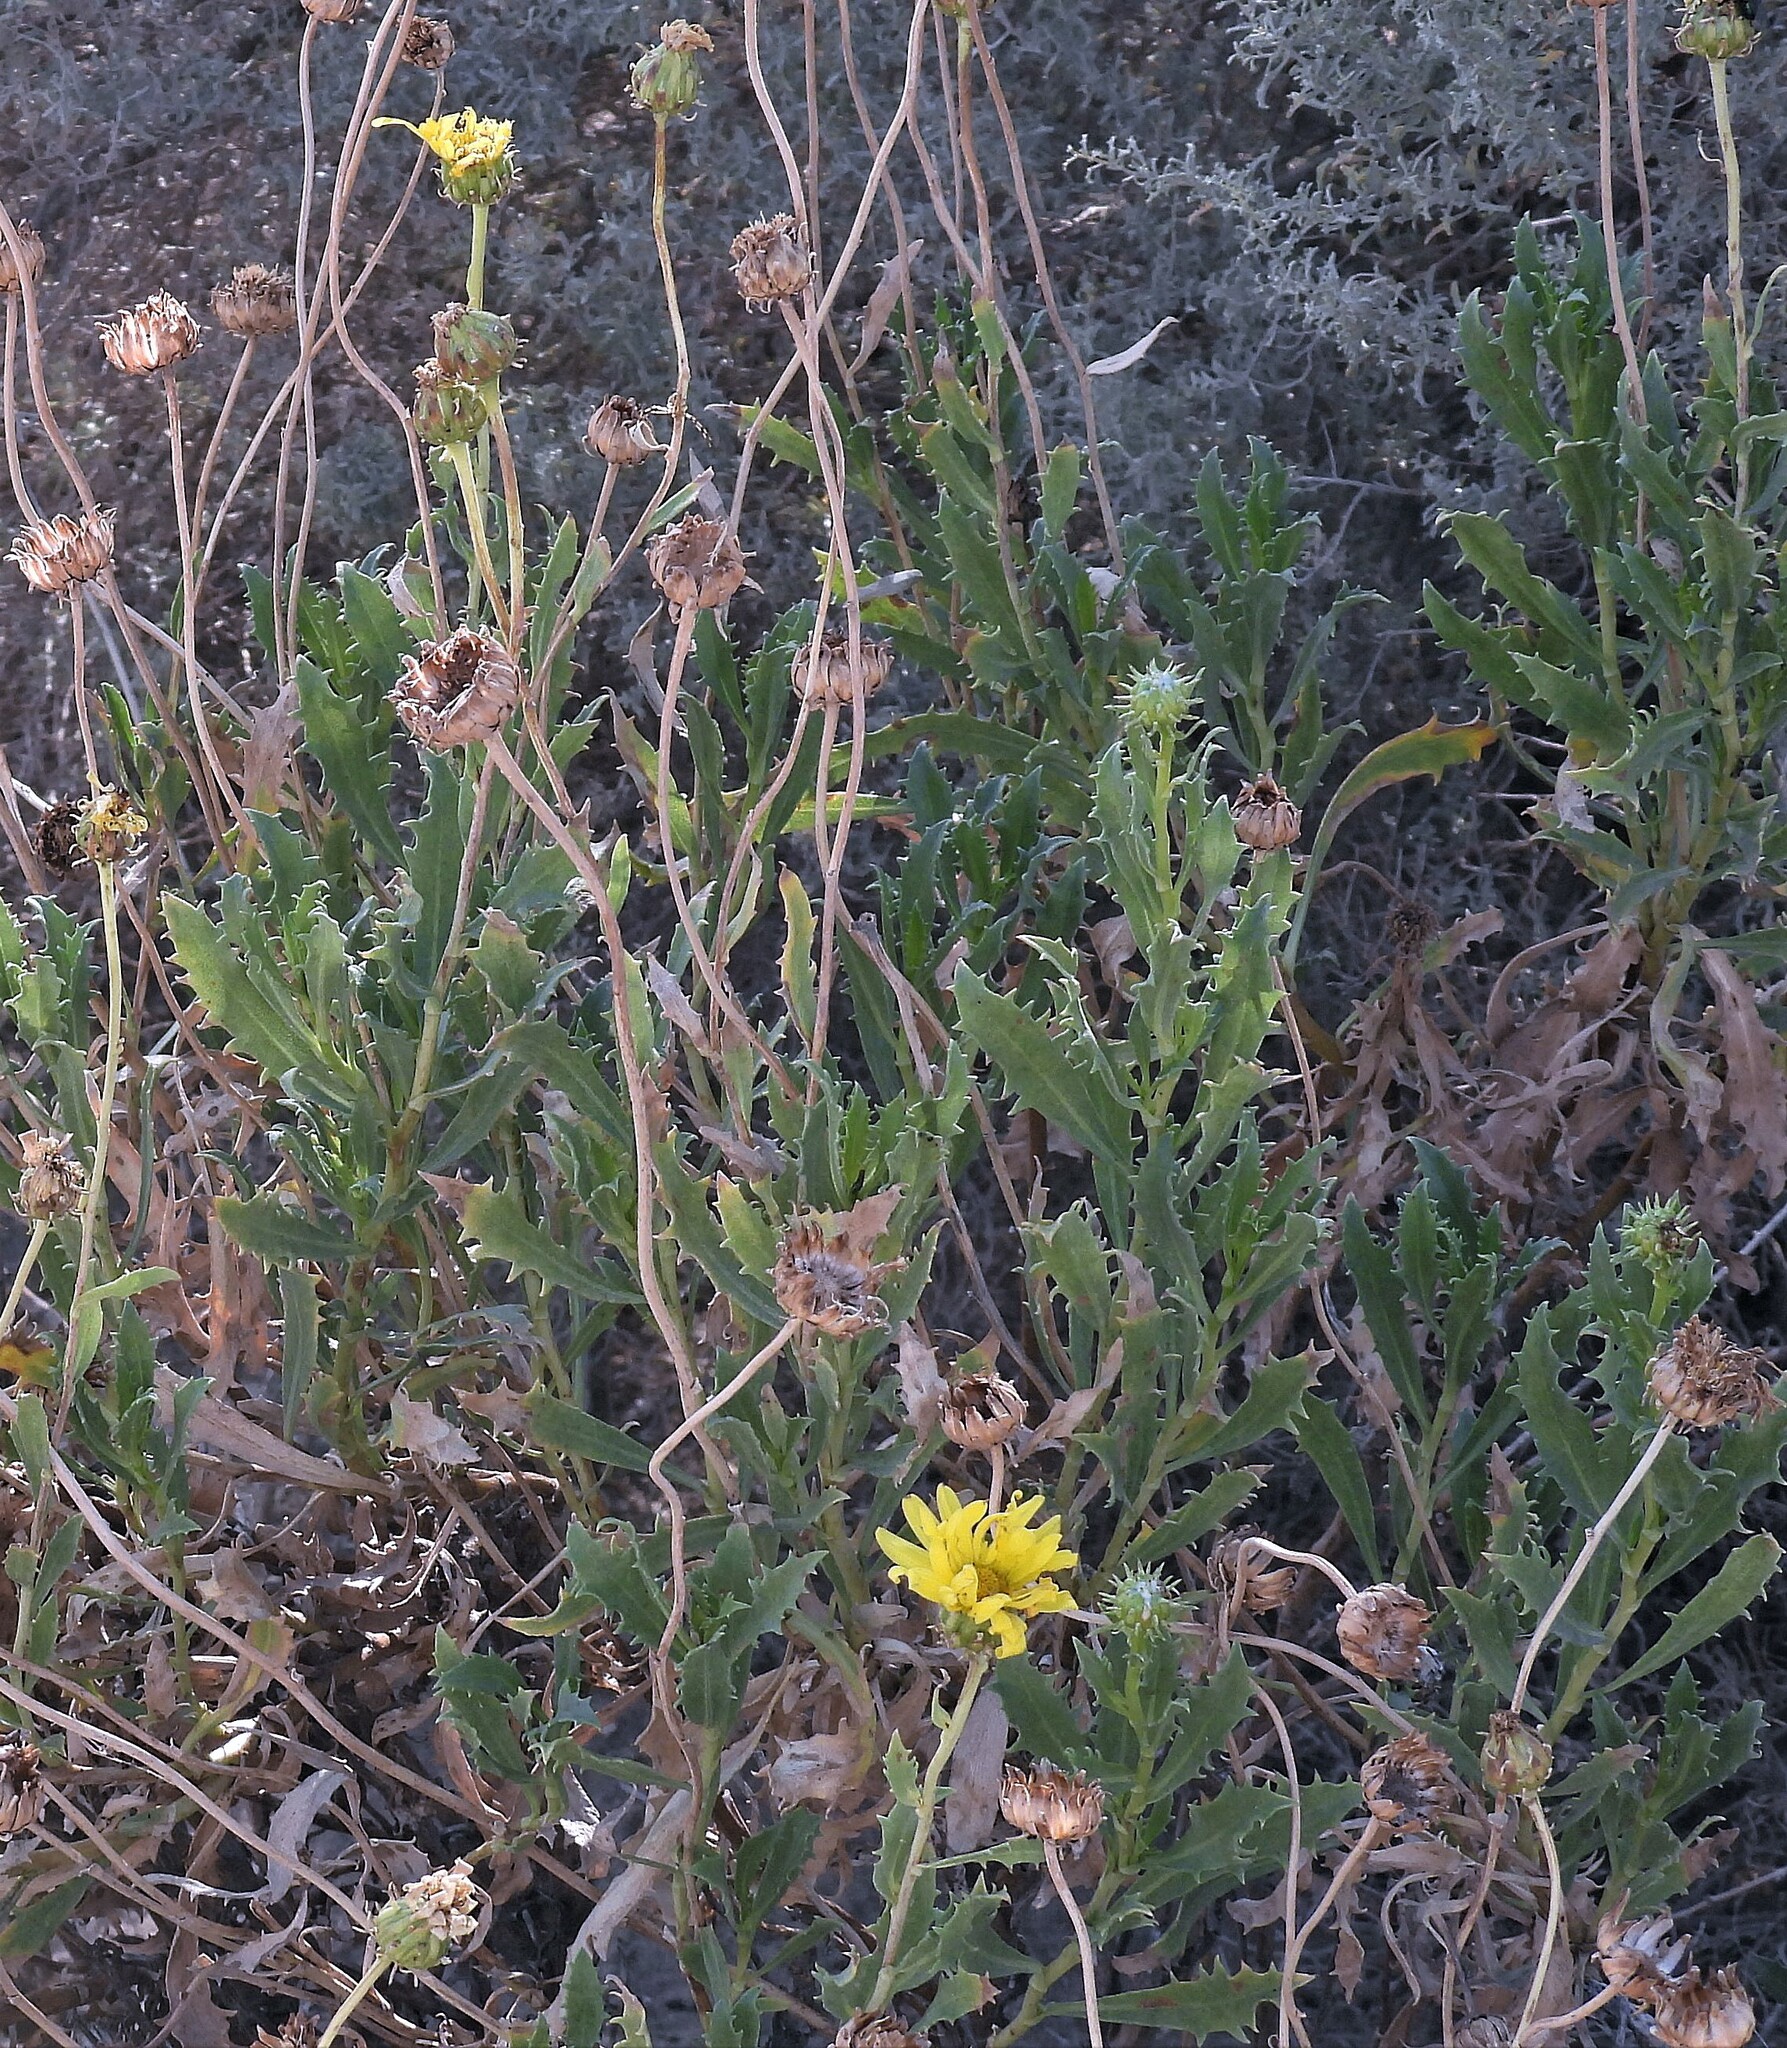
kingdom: Plantae
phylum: Tracheophyta
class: Magnoliopsida
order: Asterales
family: Asteraceae
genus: Grindelia
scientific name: Grindelia chiloensis
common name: Shrubby gumweed
